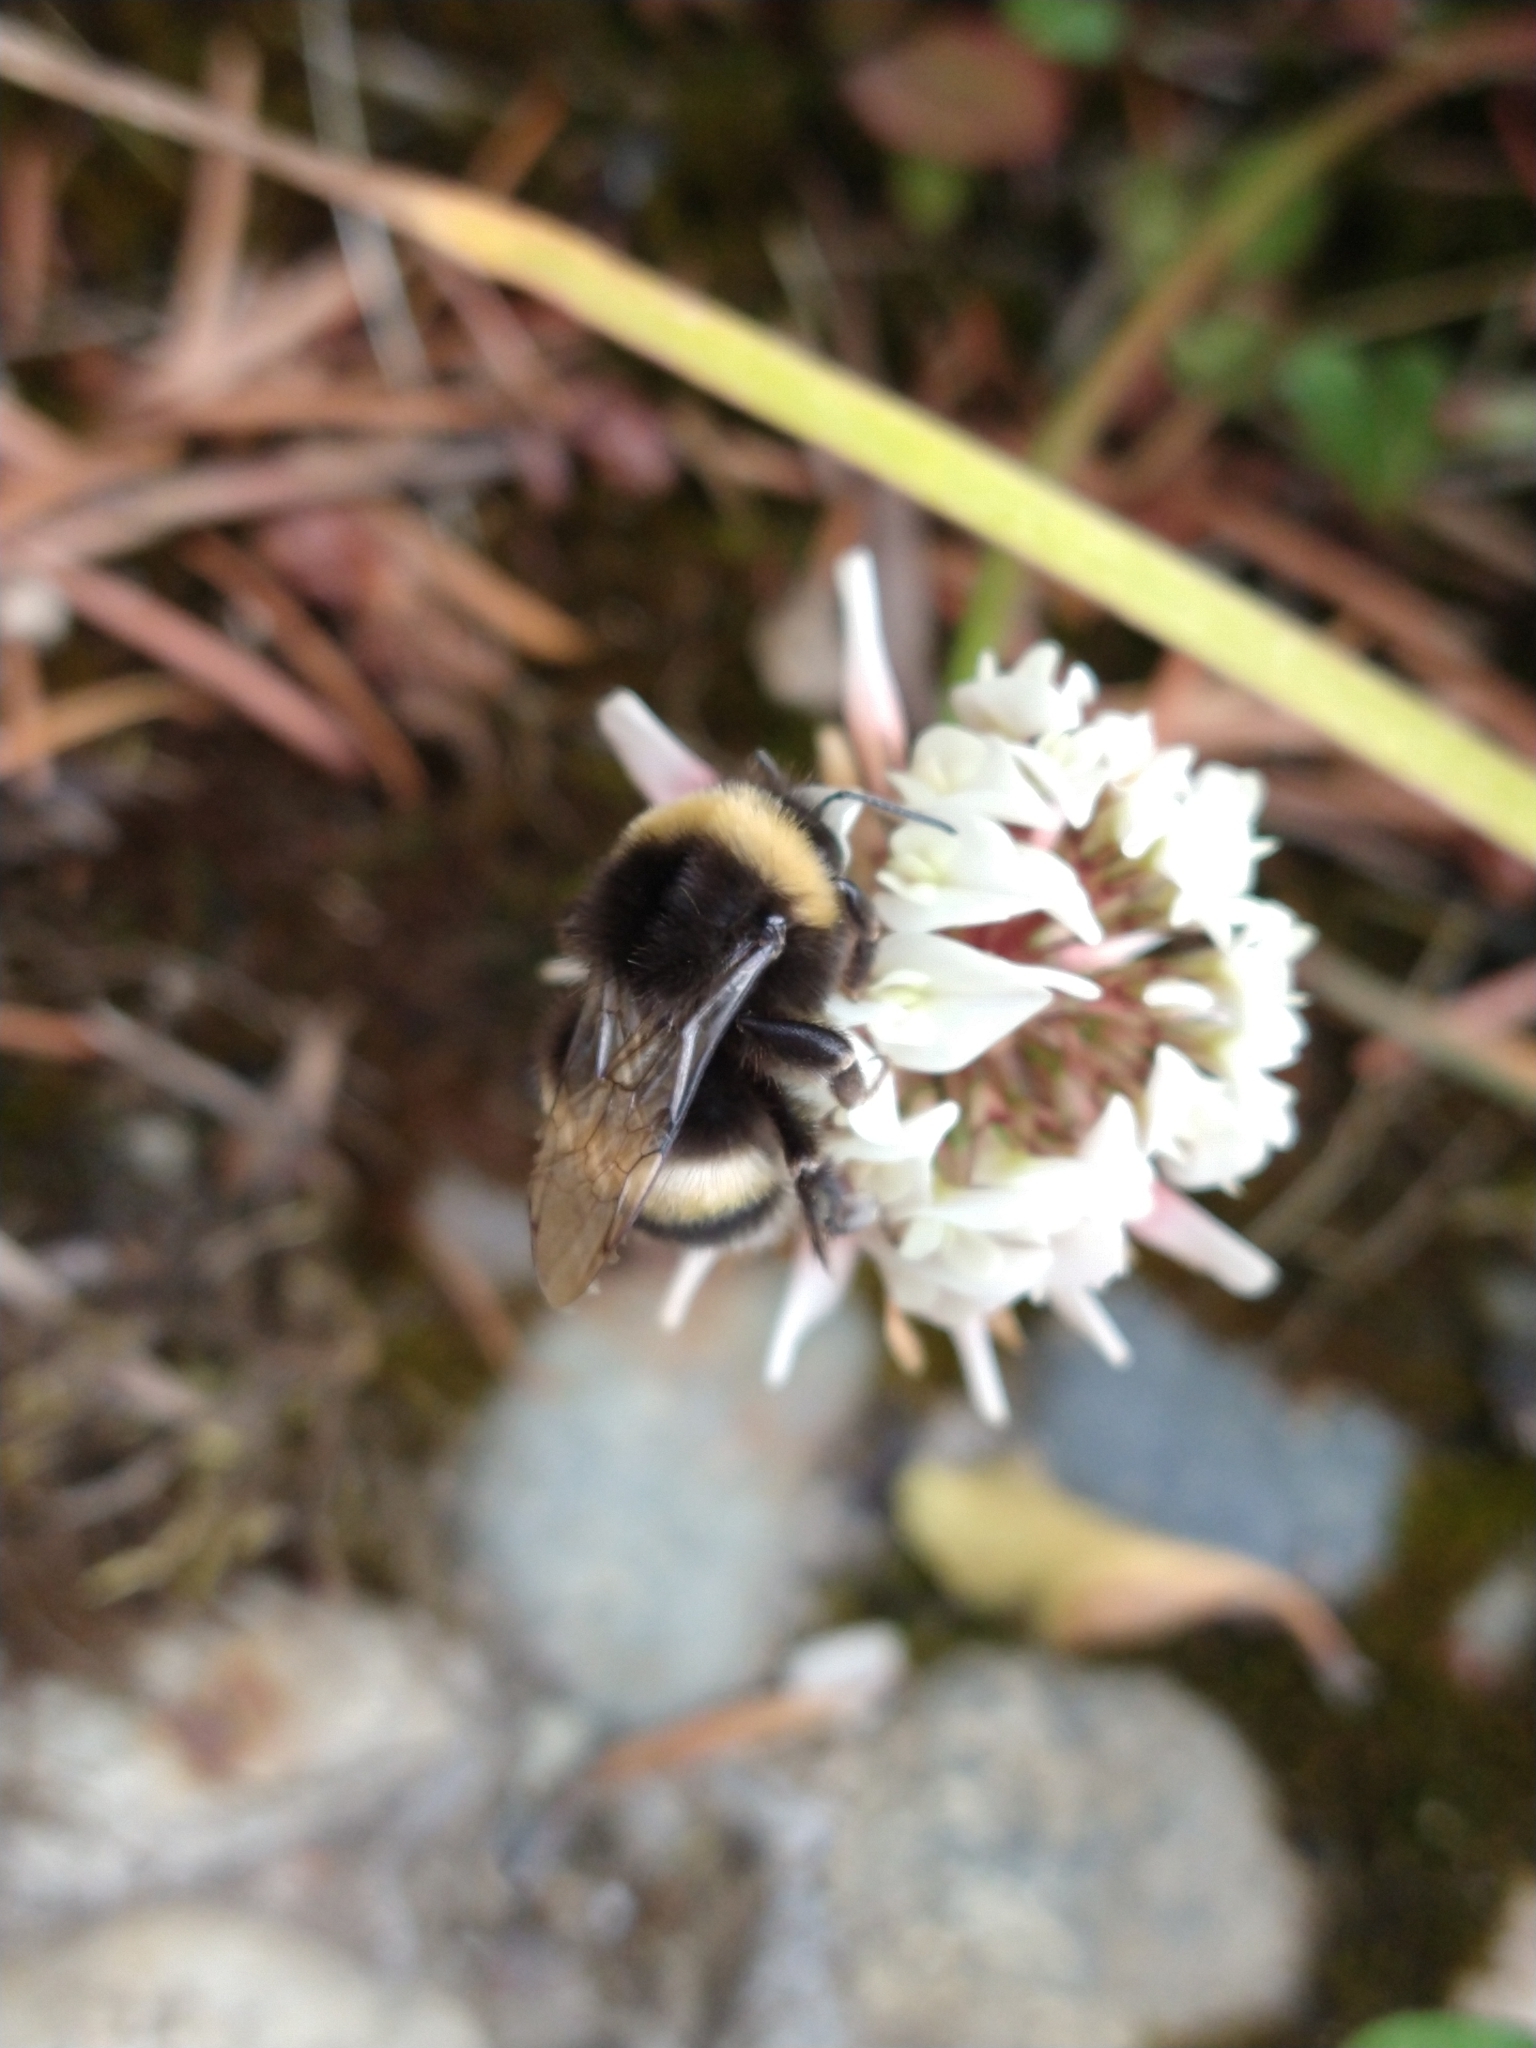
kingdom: Animalia
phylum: Arthropoda
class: Insecta
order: Hymenoptera
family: Apidae
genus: Bombus
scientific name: Bombus terrestris
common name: Buff-tailed bumblebee
